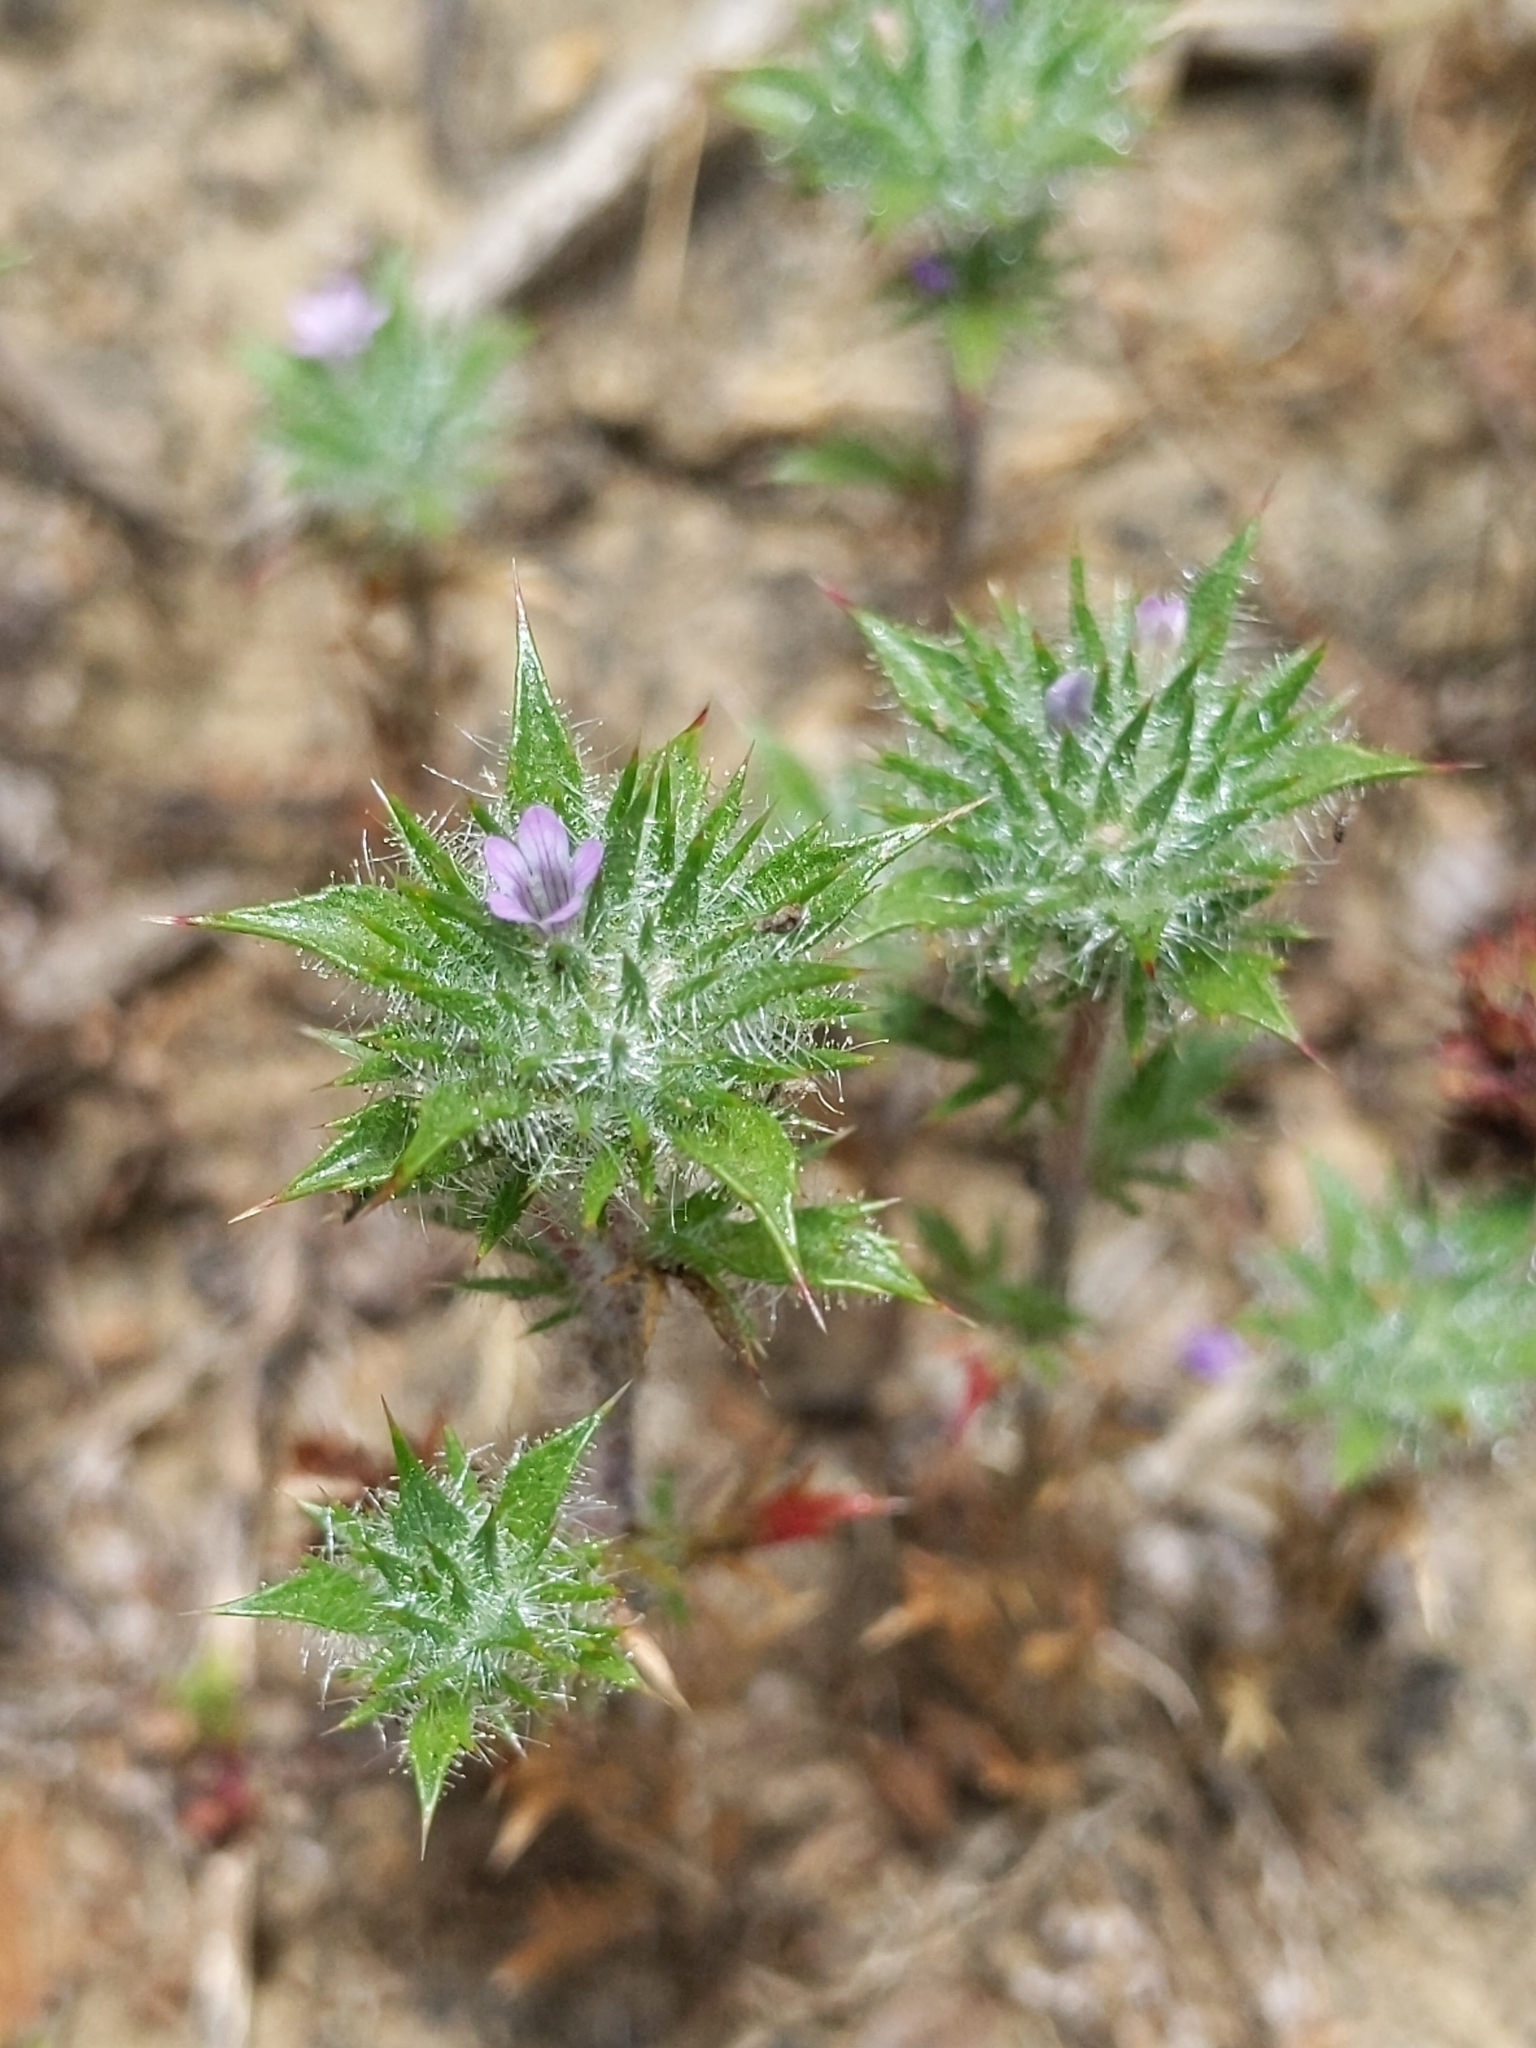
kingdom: Plantae
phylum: Tracheophyta
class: Magnoliopsida
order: Ericales
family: Polemoniaceae
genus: Navarretia
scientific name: Navarretia mellita
